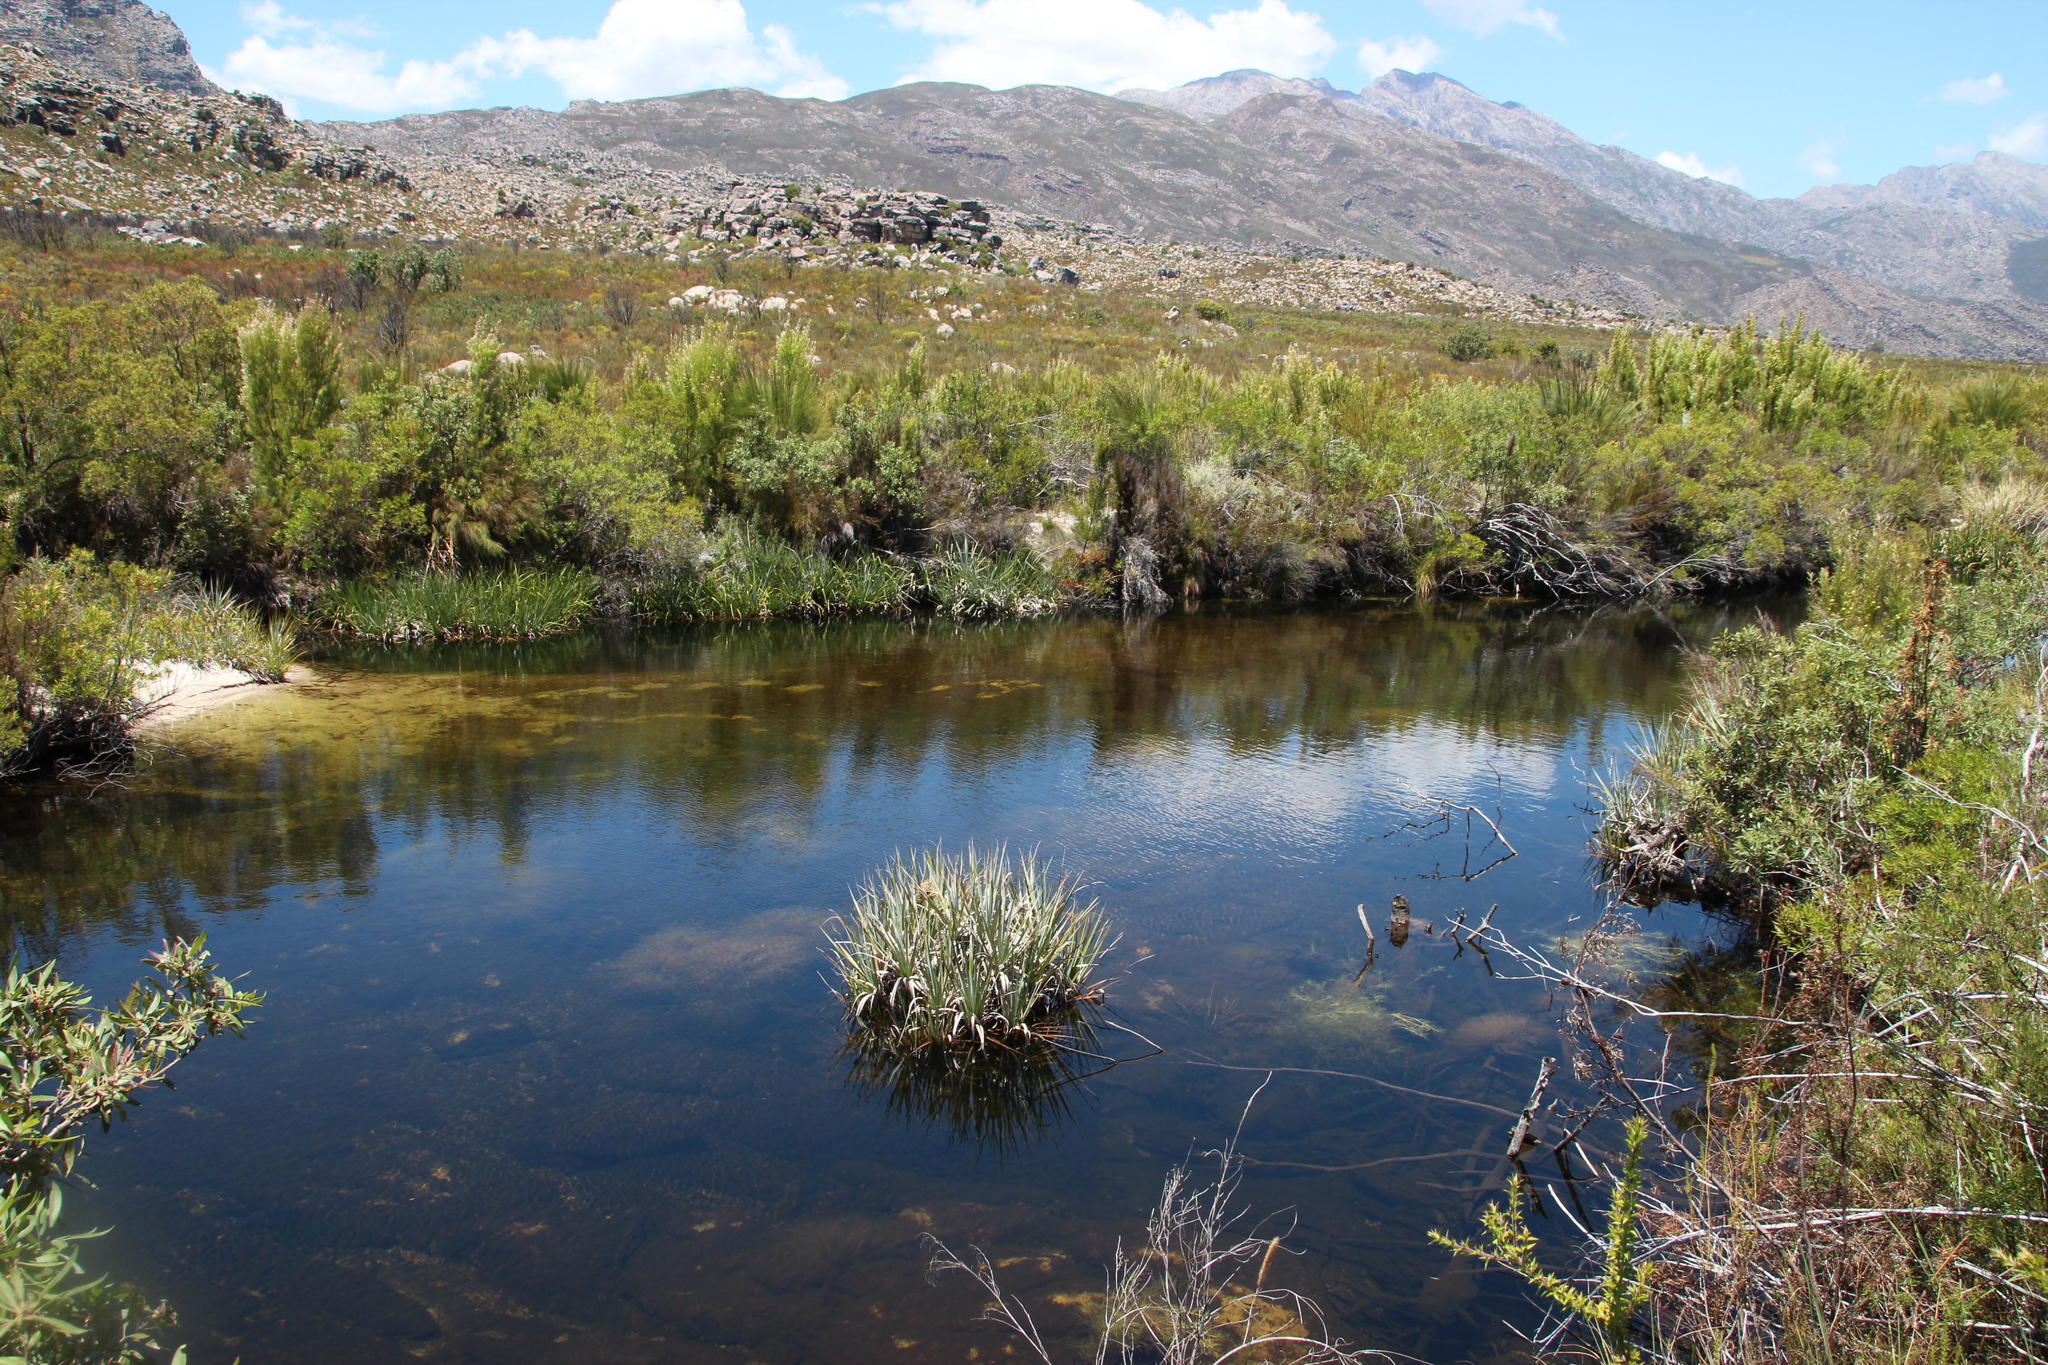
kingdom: Plantae
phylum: Tracheophyta
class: Liliopsida
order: Poales
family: Thurniaceae
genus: Prionium
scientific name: Prionium serratum
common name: Palmiet
